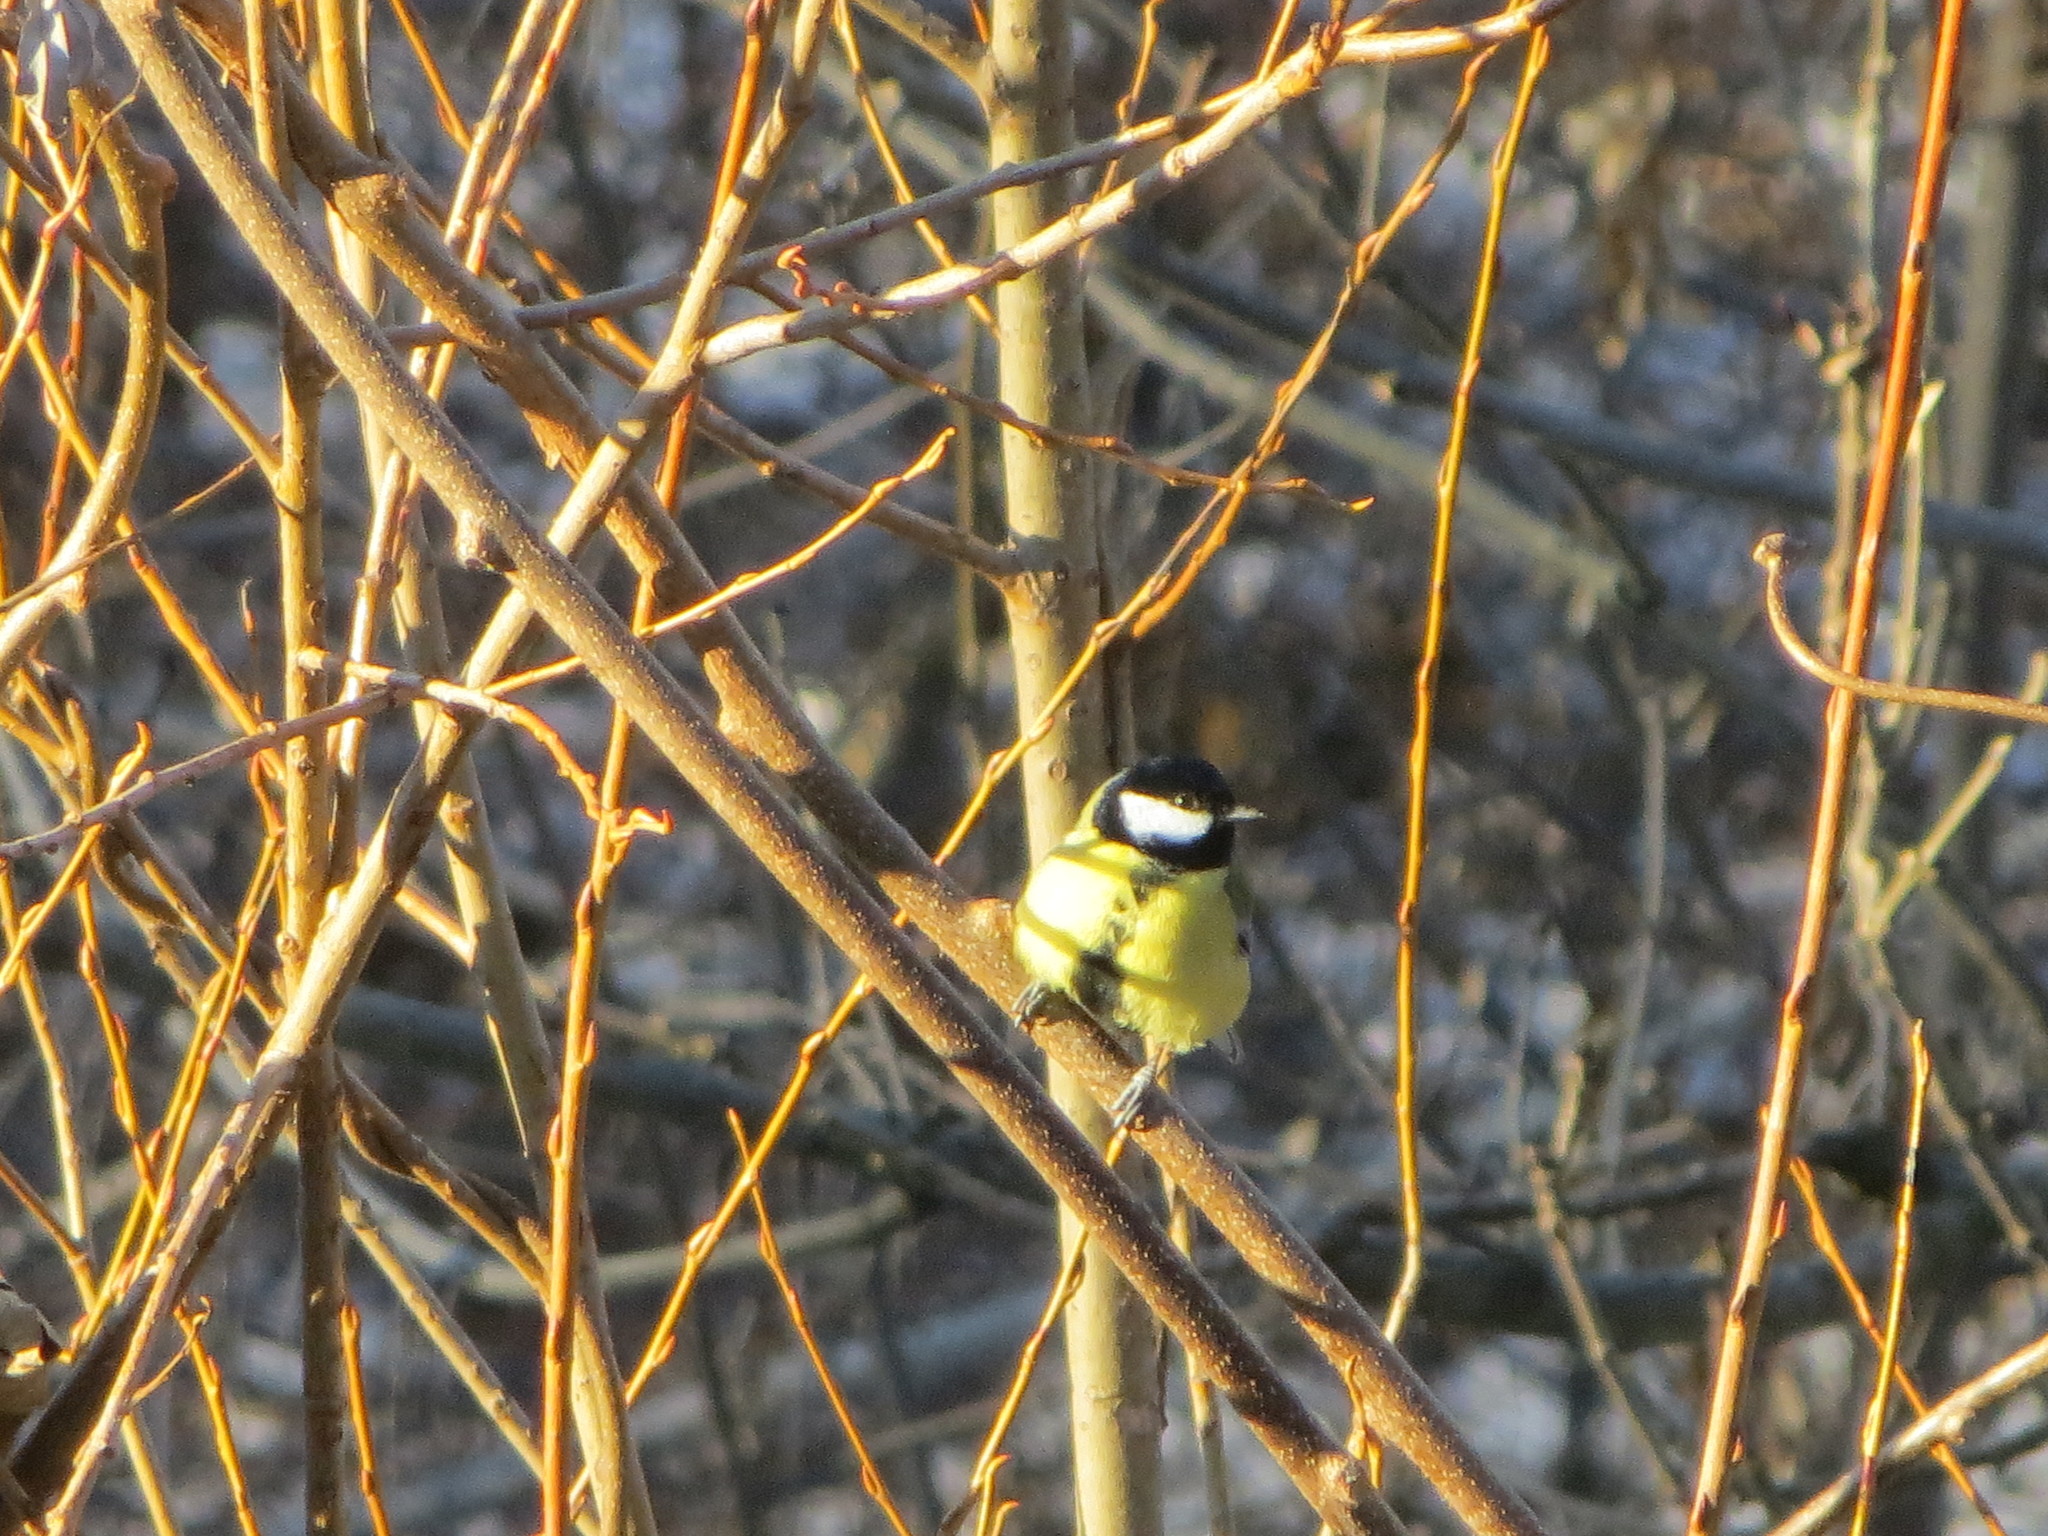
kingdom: Animalia
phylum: Chordata
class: Aves
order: Passeriformes
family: Paridae
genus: Parus
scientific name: Parus major
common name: Great tit
